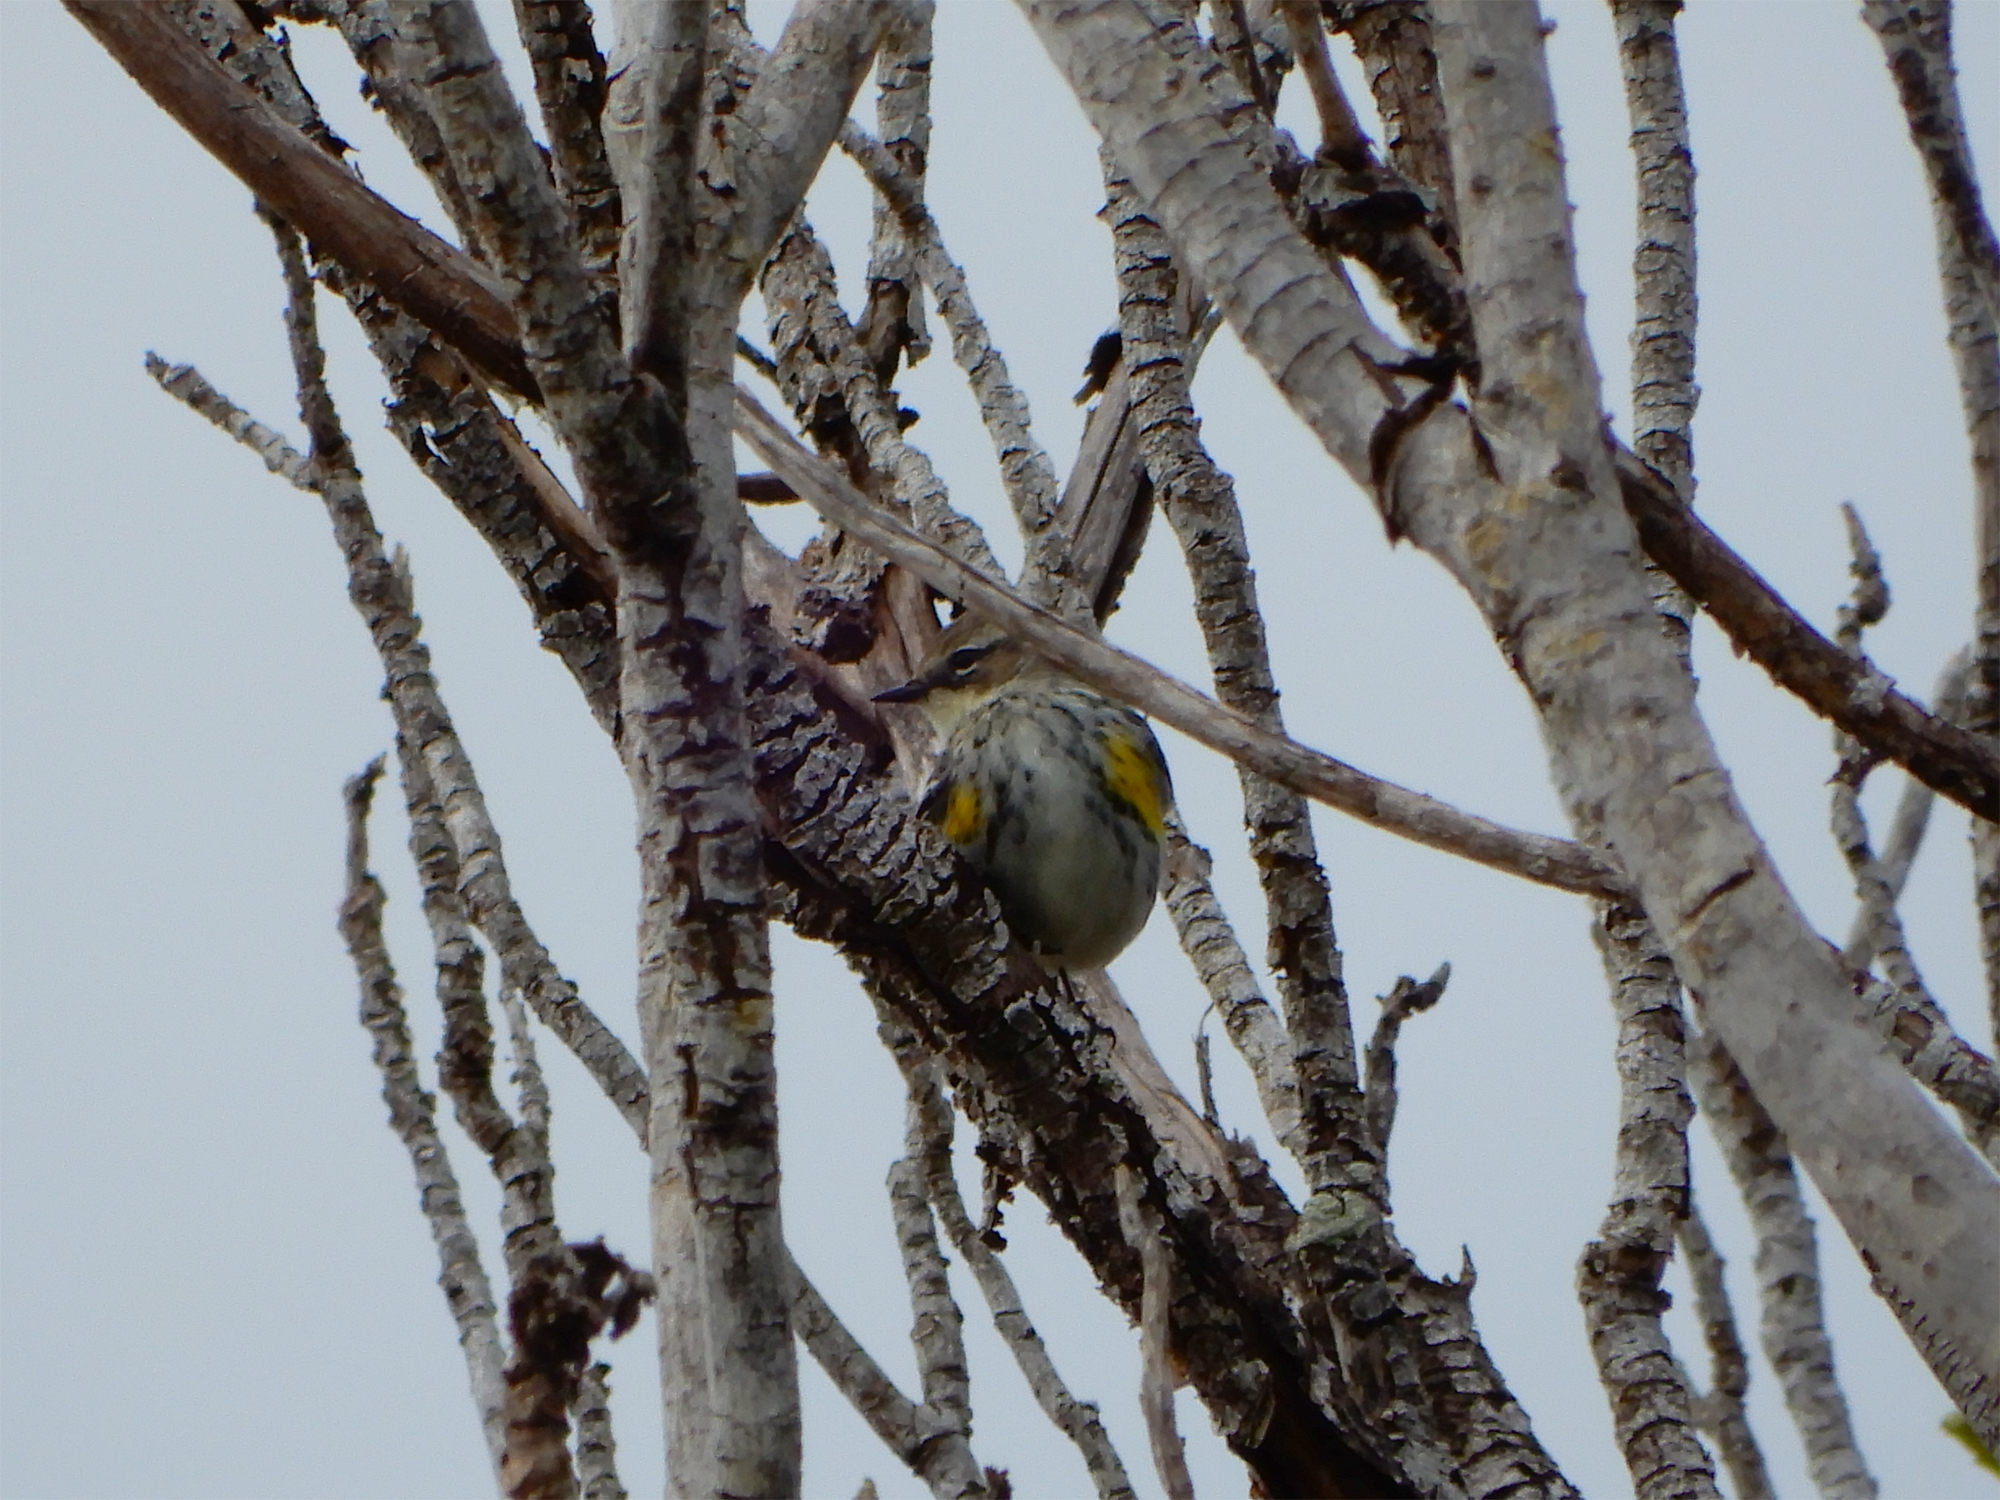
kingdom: Animalia
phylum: Chordata
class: Aves
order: Passeriformes
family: Parulidae
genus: Setophaga
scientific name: Setophaga coronata
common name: Myrtle warbler
